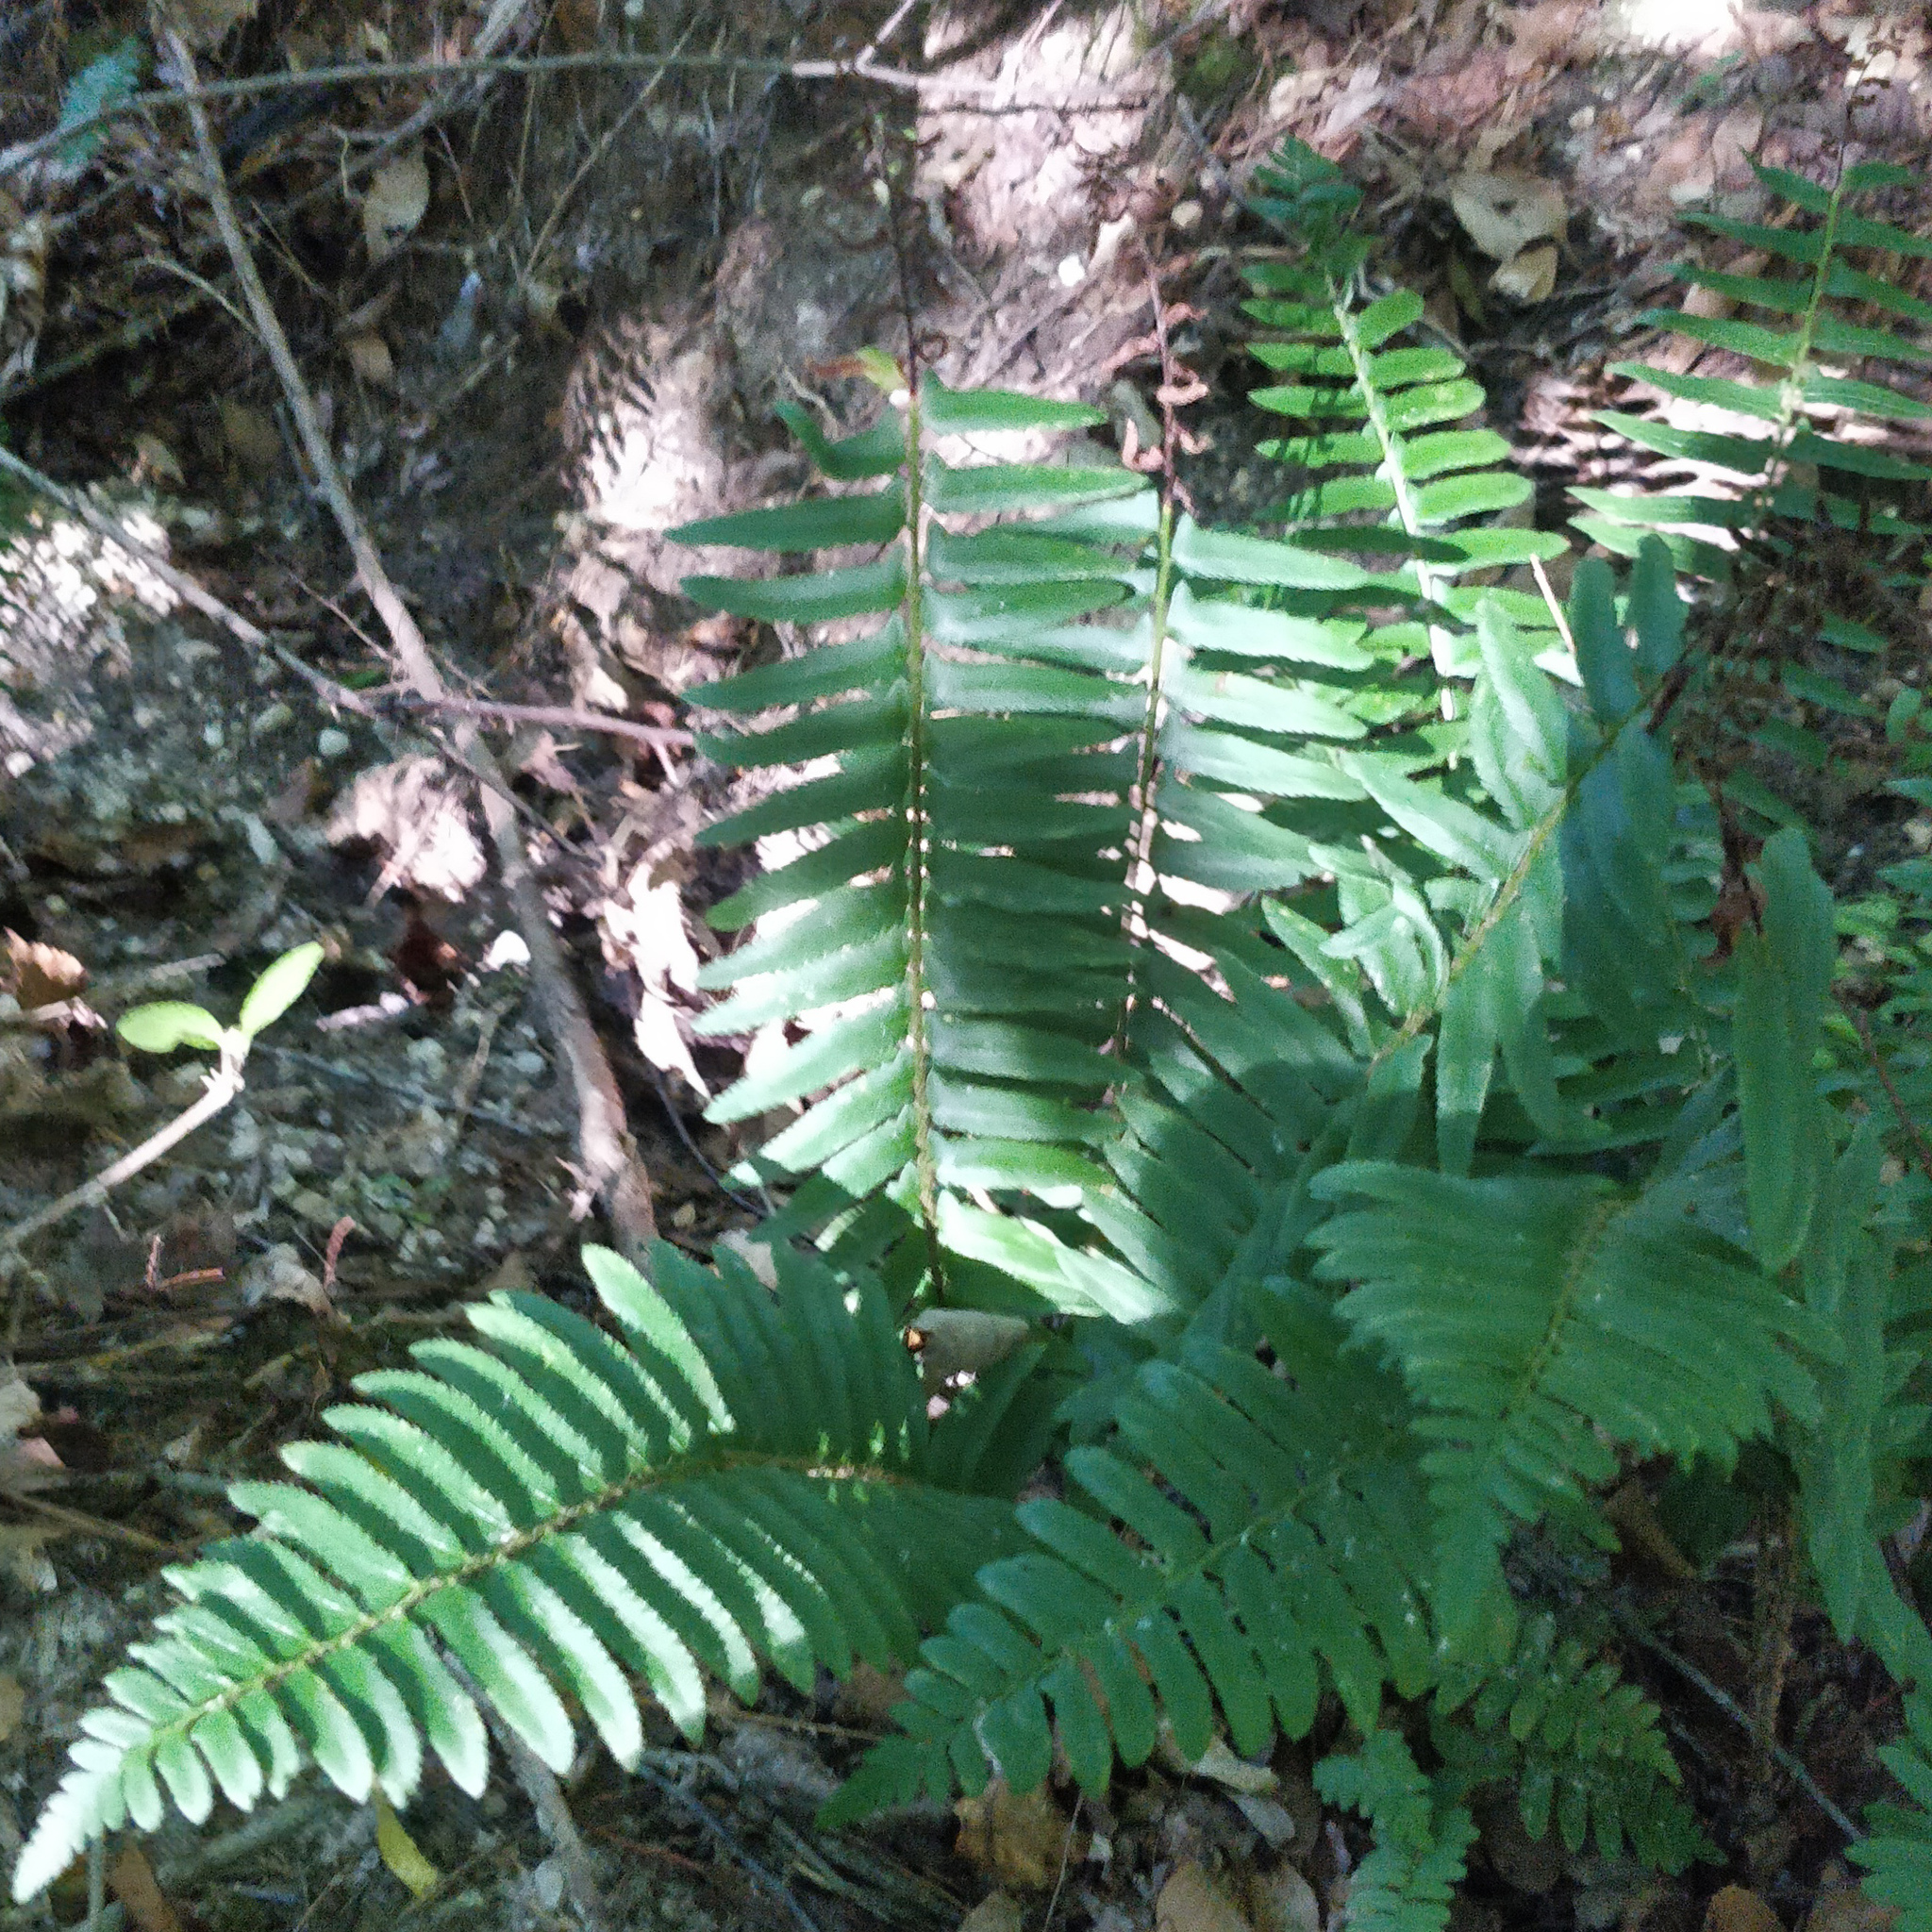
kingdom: Plantae
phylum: Tracheophyta
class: Polypodiopsida
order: Polypodiales
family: Dryopteridaceae
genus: Polystichum
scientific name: Polystichum acrostichoides
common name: Christmas fern
